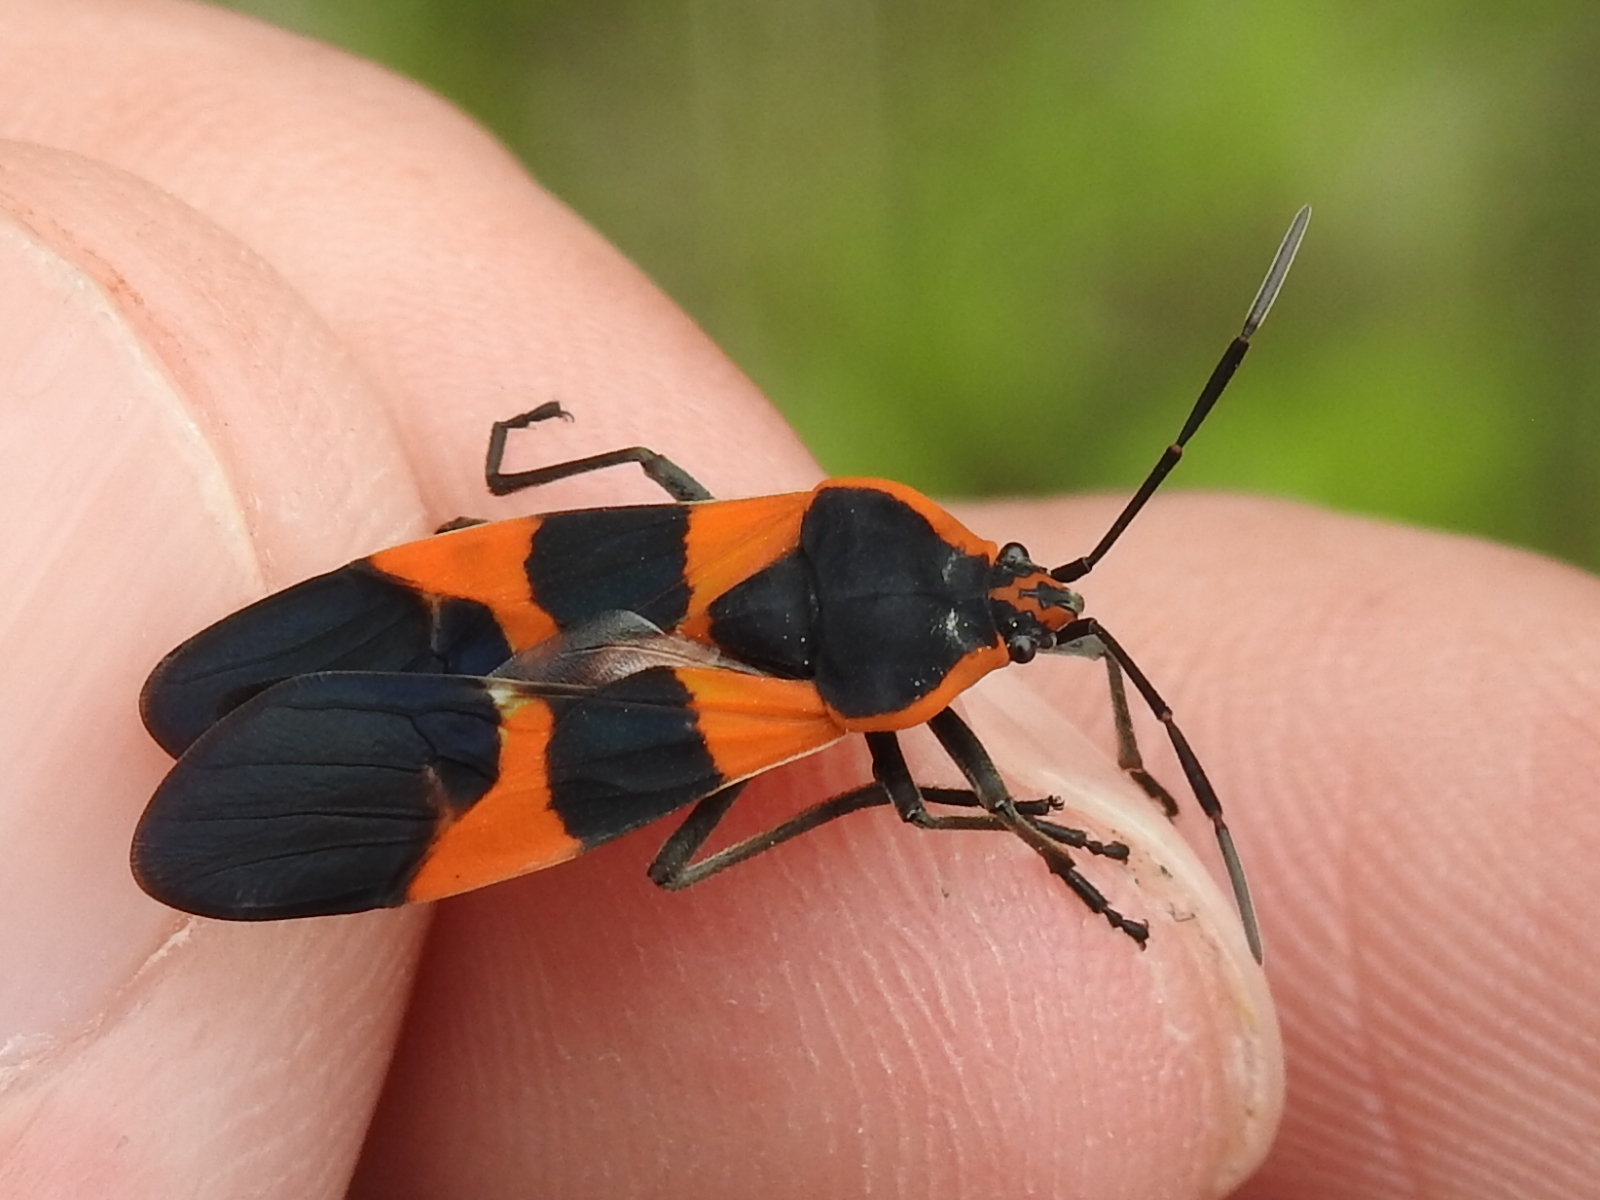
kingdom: Animalia
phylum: Arthropoda
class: Insecta
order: Hemiptera
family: Lygaeidae
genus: Oncopeltus
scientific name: Oncopeltus fasciatus
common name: Large milkweed bug
